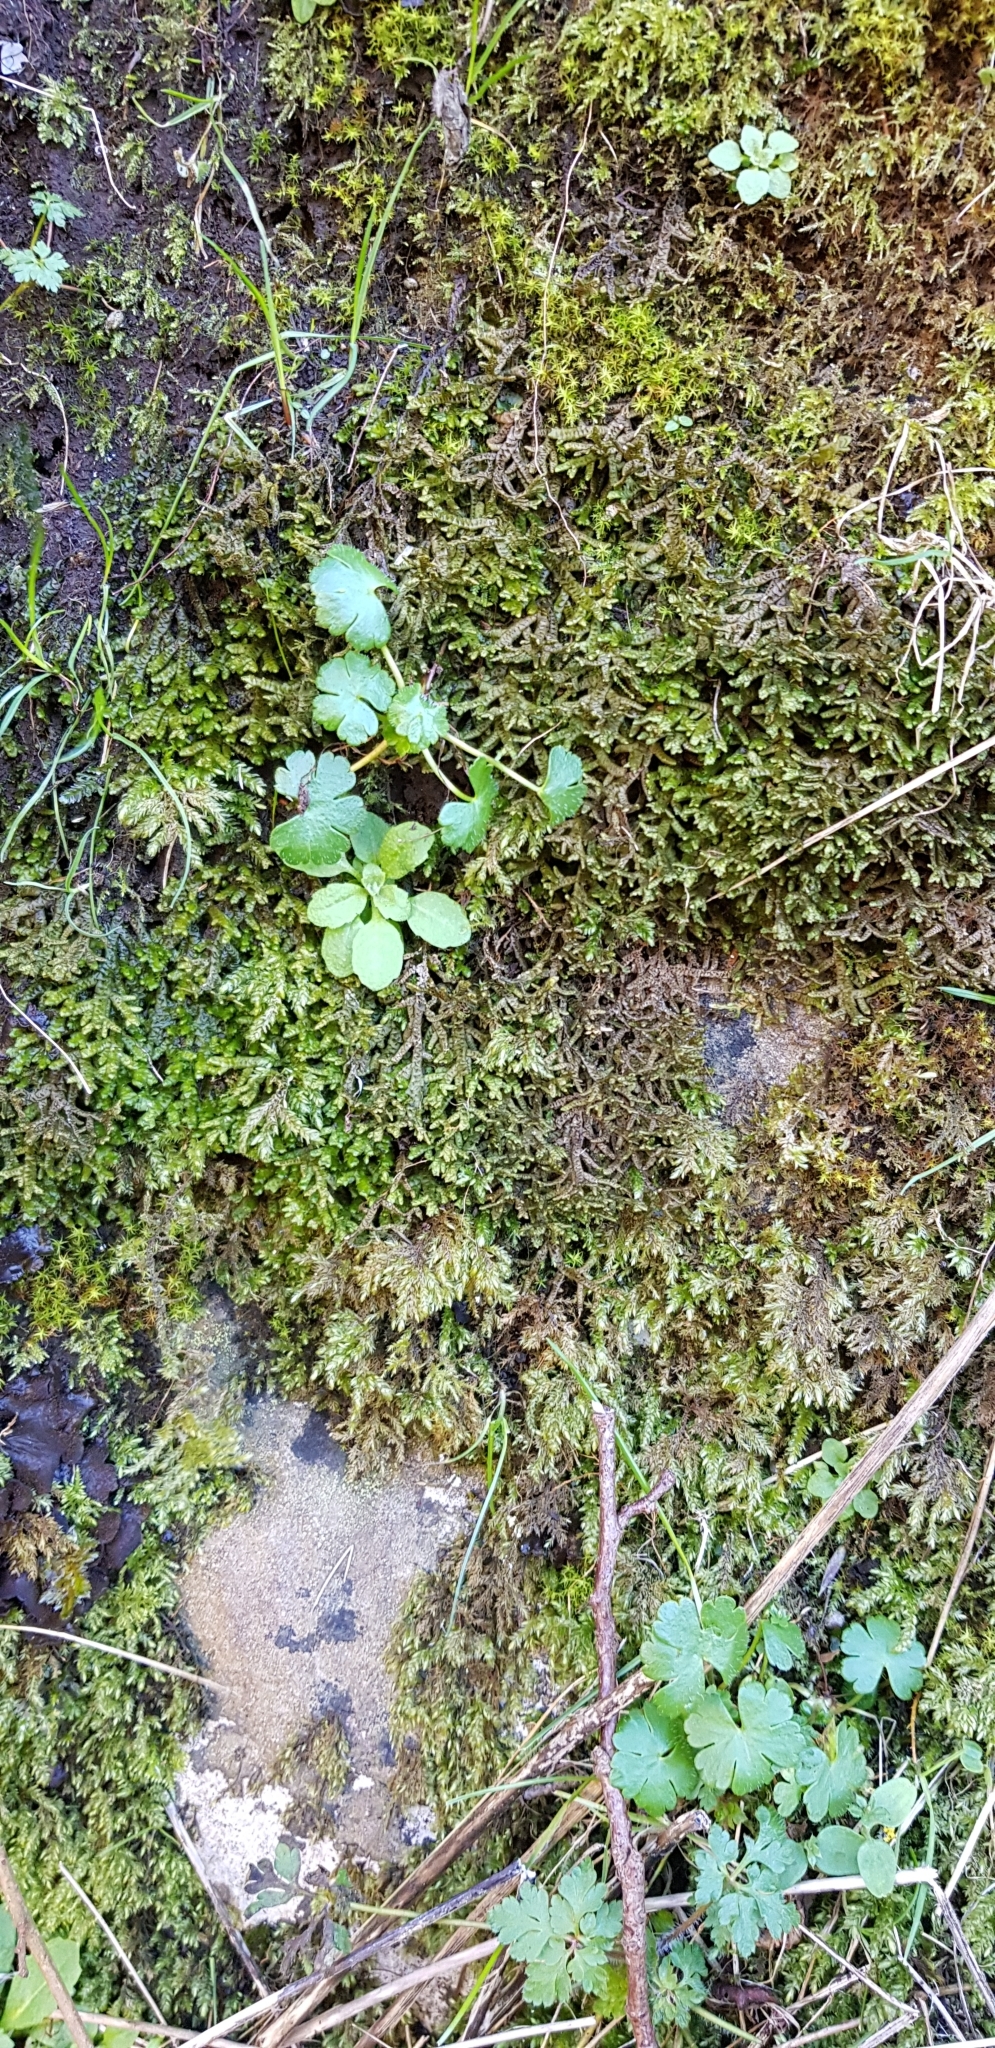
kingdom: Plantae
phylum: Marchantiophyta
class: Jungermanniopsida
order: Porellales
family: Porellaceae
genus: Porella
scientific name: Porella platyphylla
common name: Wall scalewort
